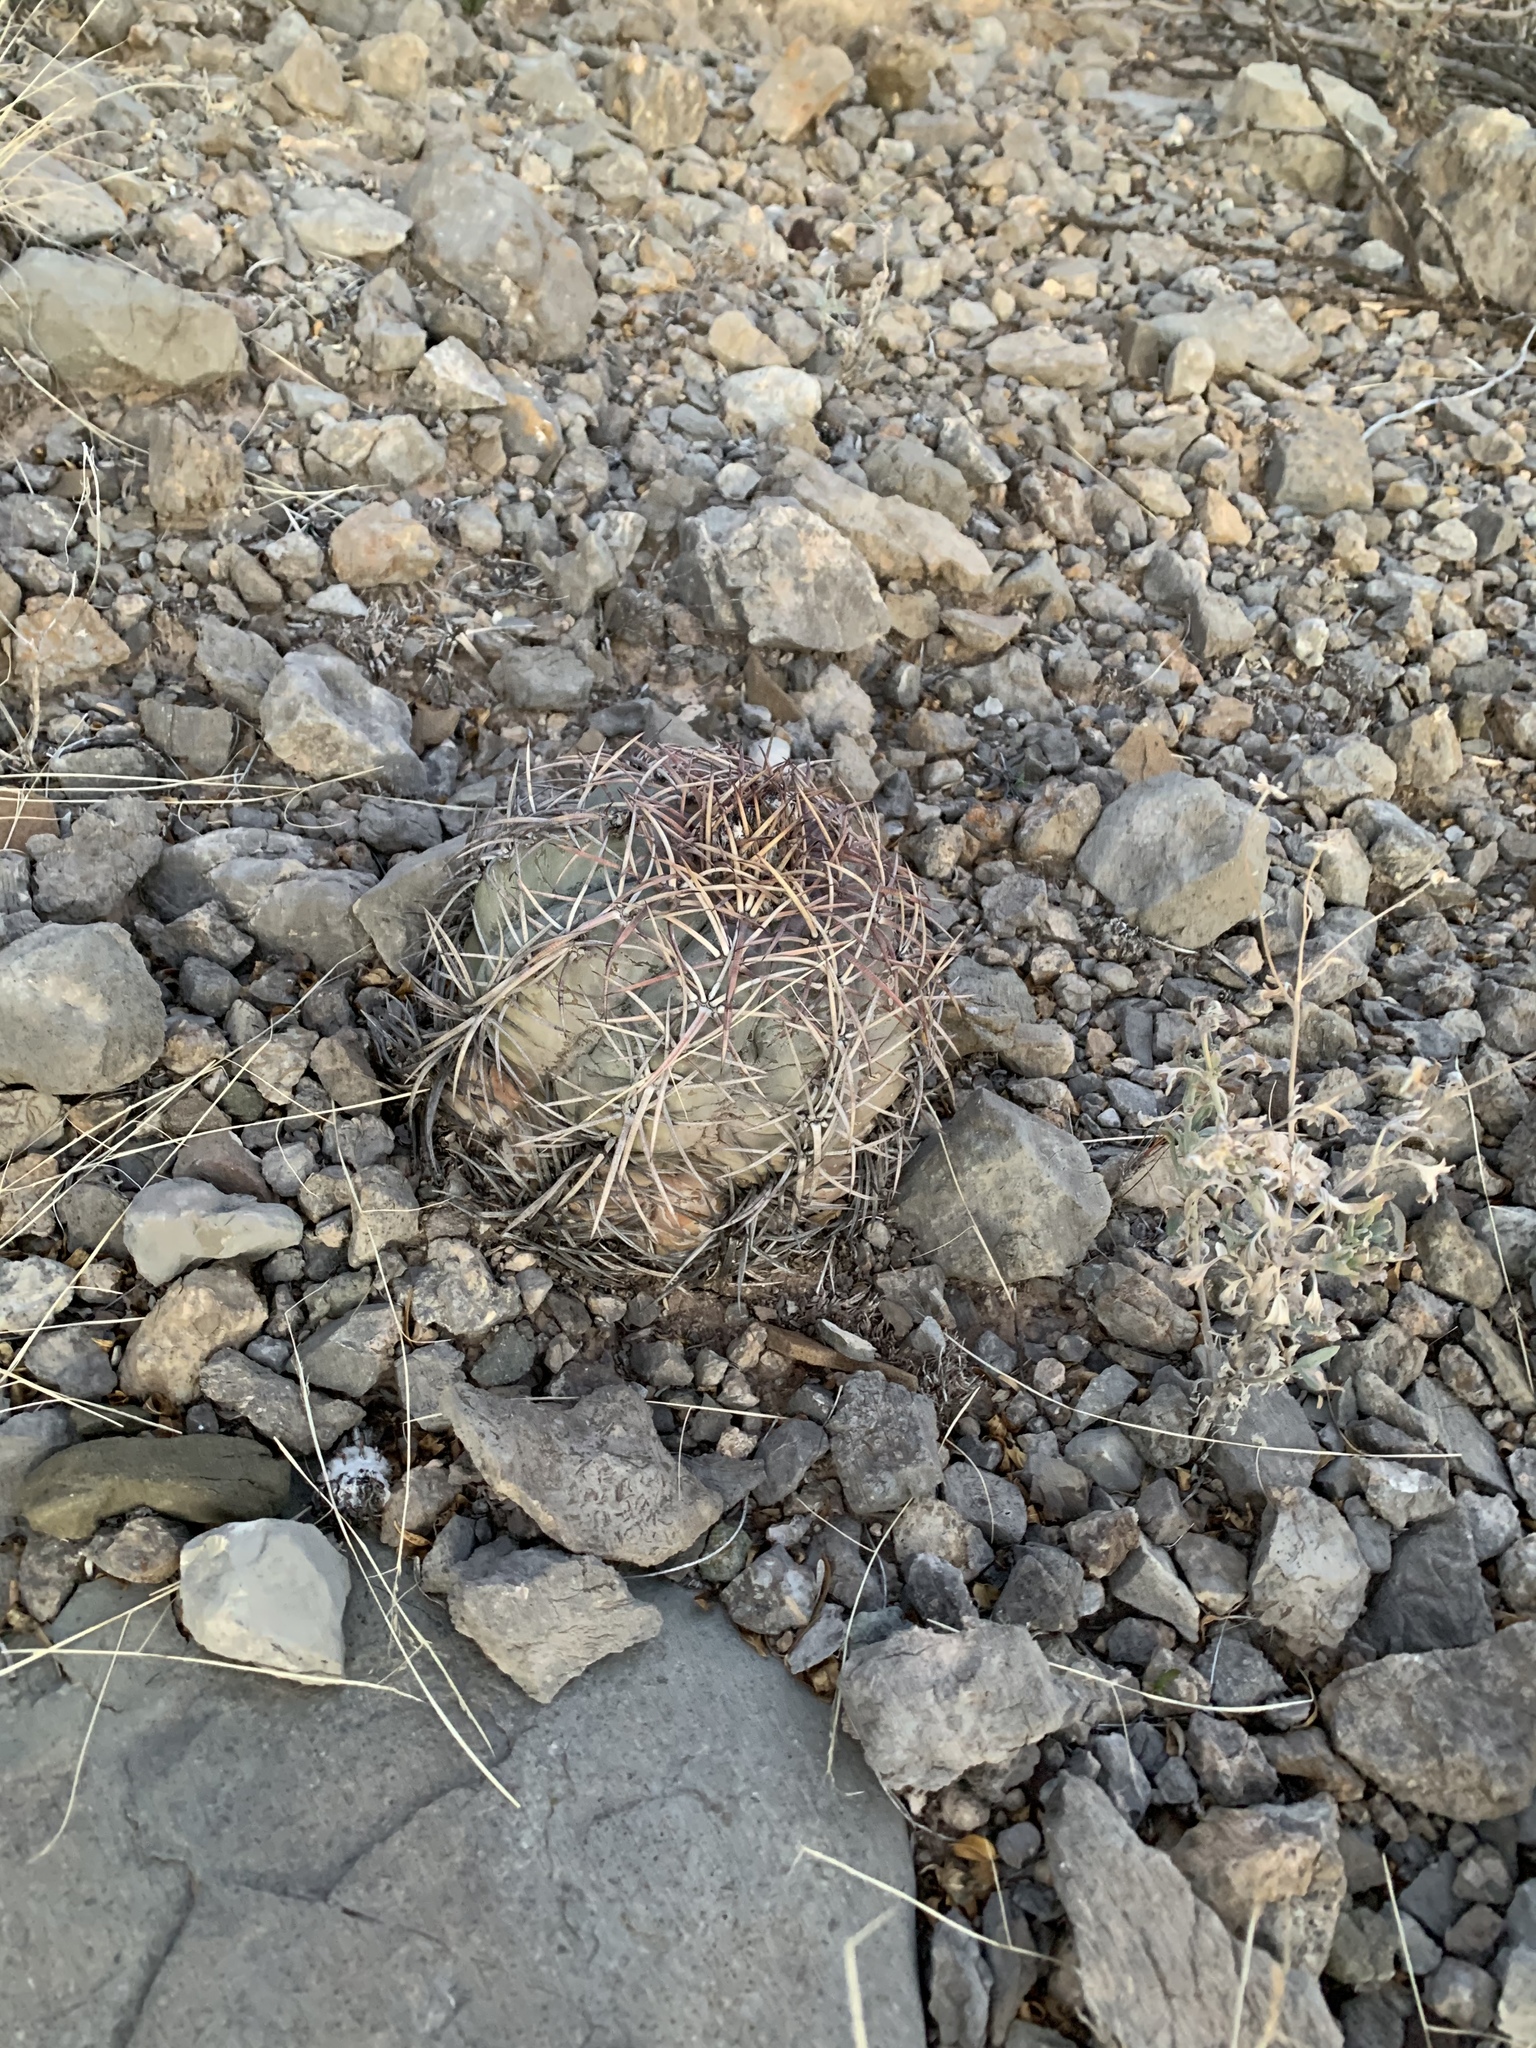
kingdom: Plantae
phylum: Tracheophyta
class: Magnoliopsida
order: Caryophyllales
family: Cactaceae
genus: Echinocactus
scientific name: Echinocactus horizonthalonius
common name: Devilshead
